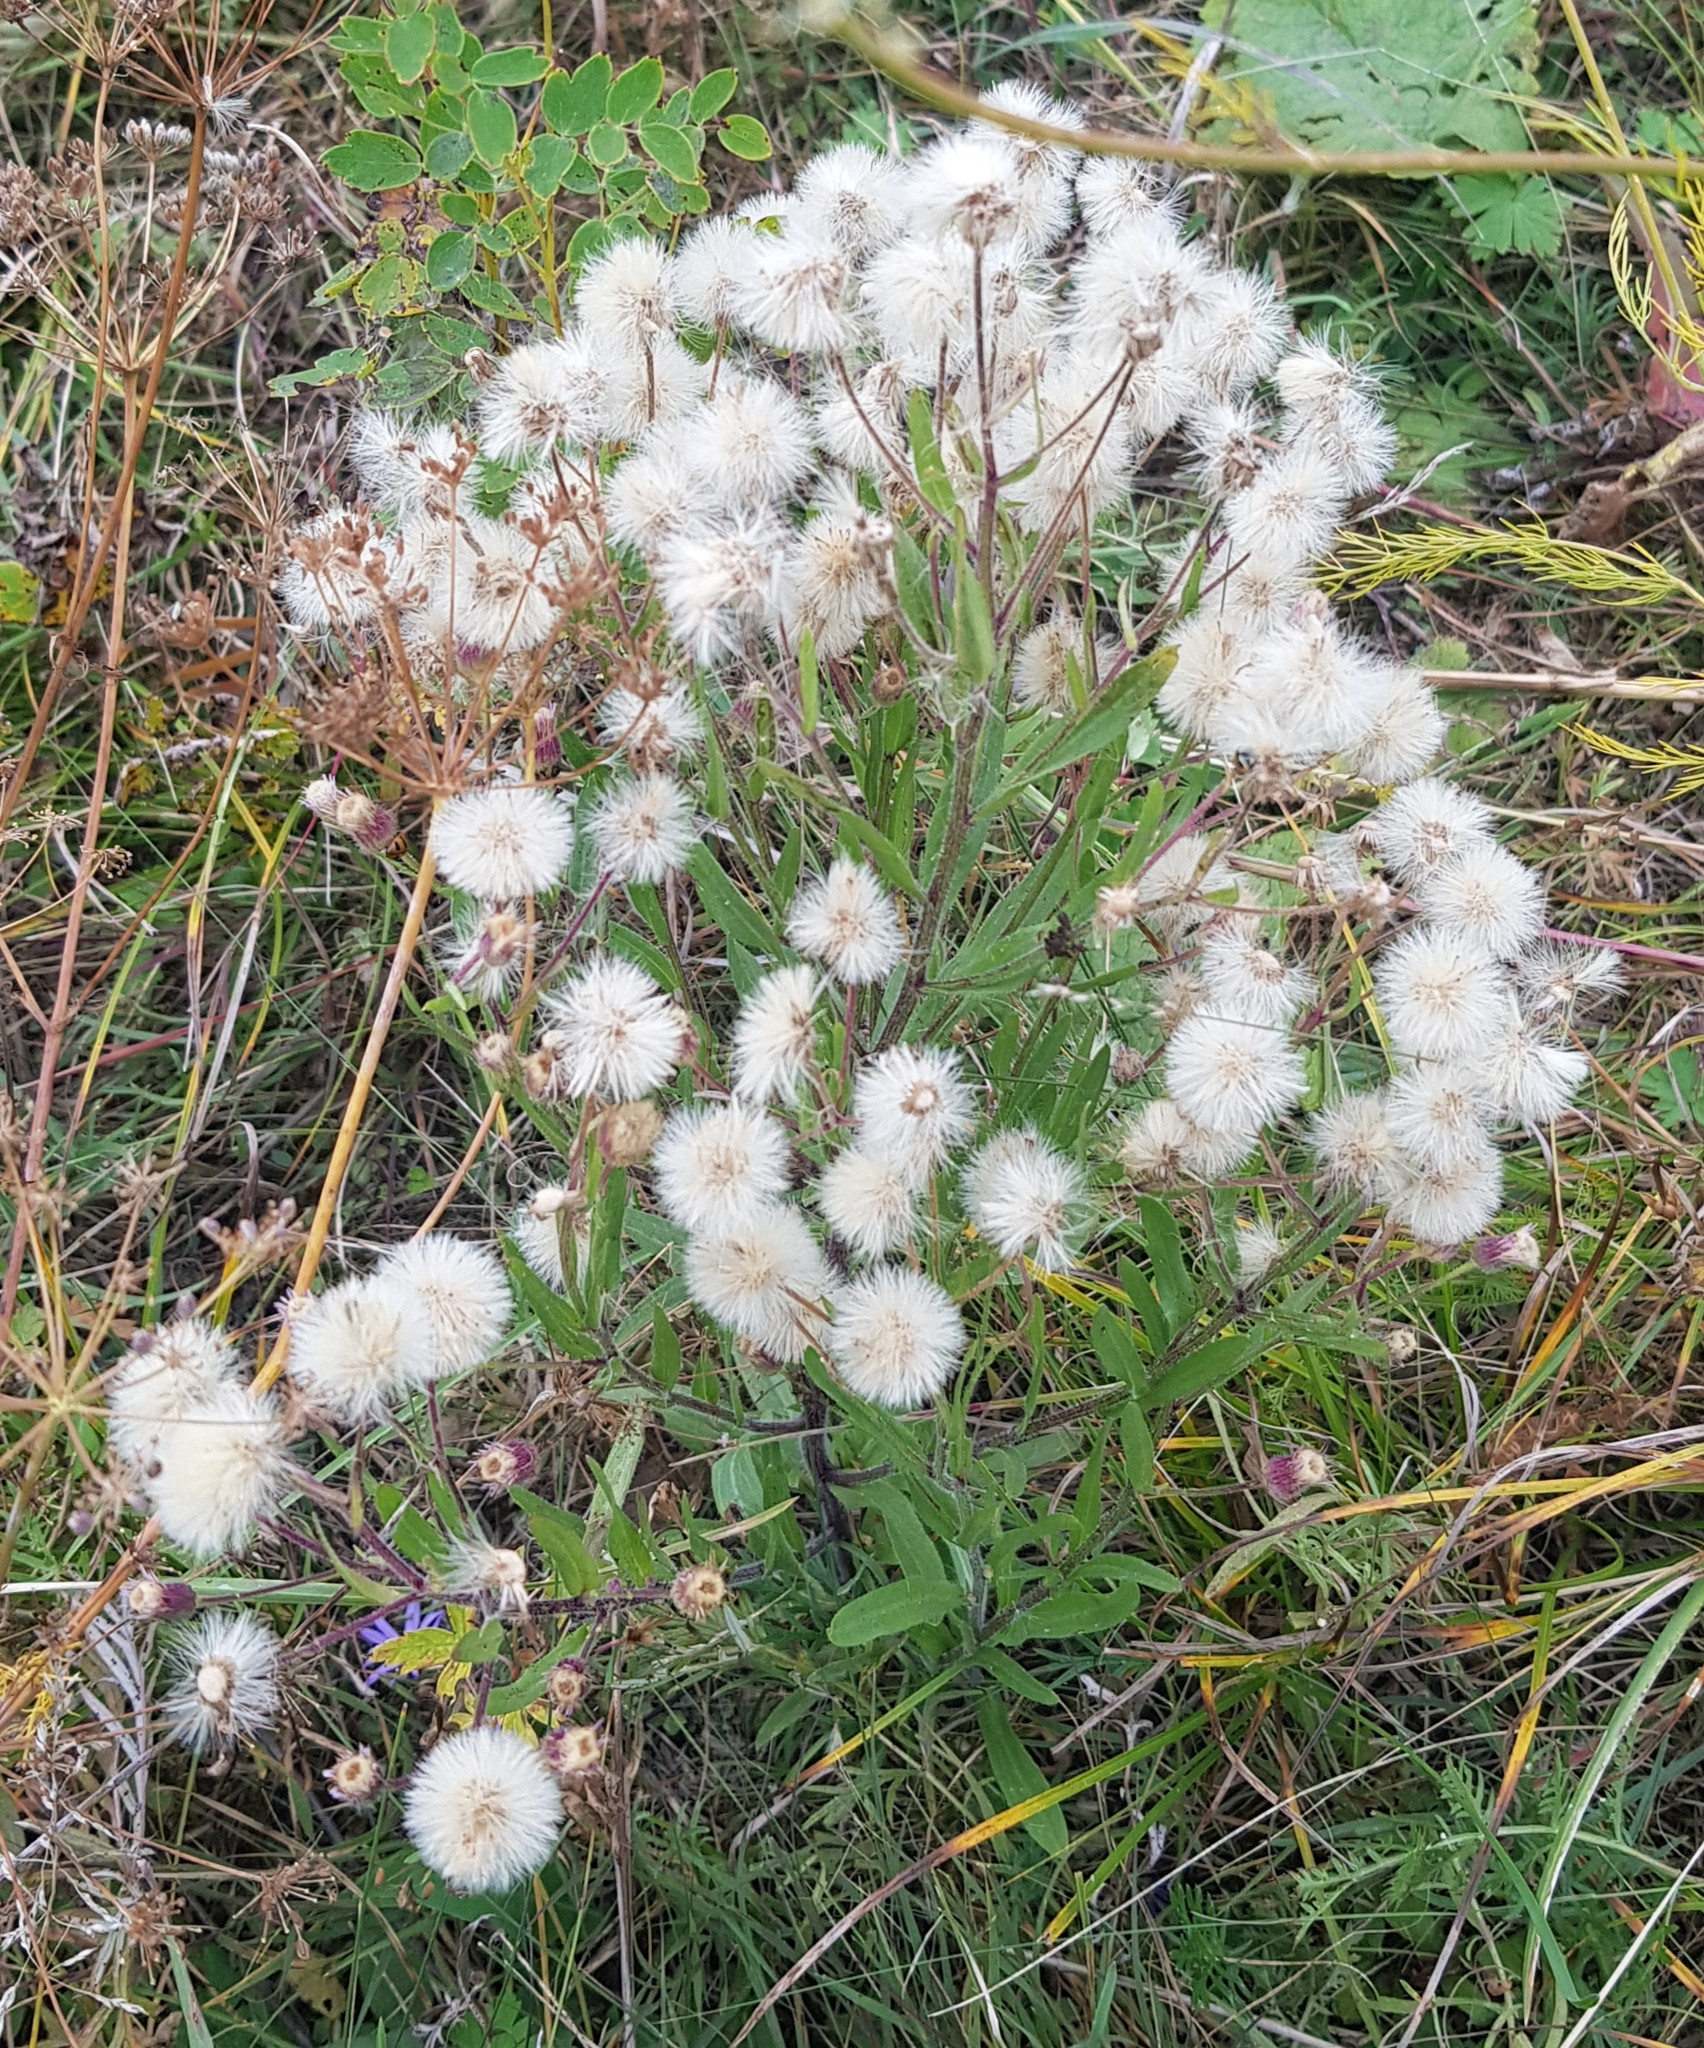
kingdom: Plantae
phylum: Tracheophyta
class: Magnoliopsida
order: Asterales
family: Asteraceae
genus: Erigeron
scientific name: Erigeron acris
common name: Blue fleabane
